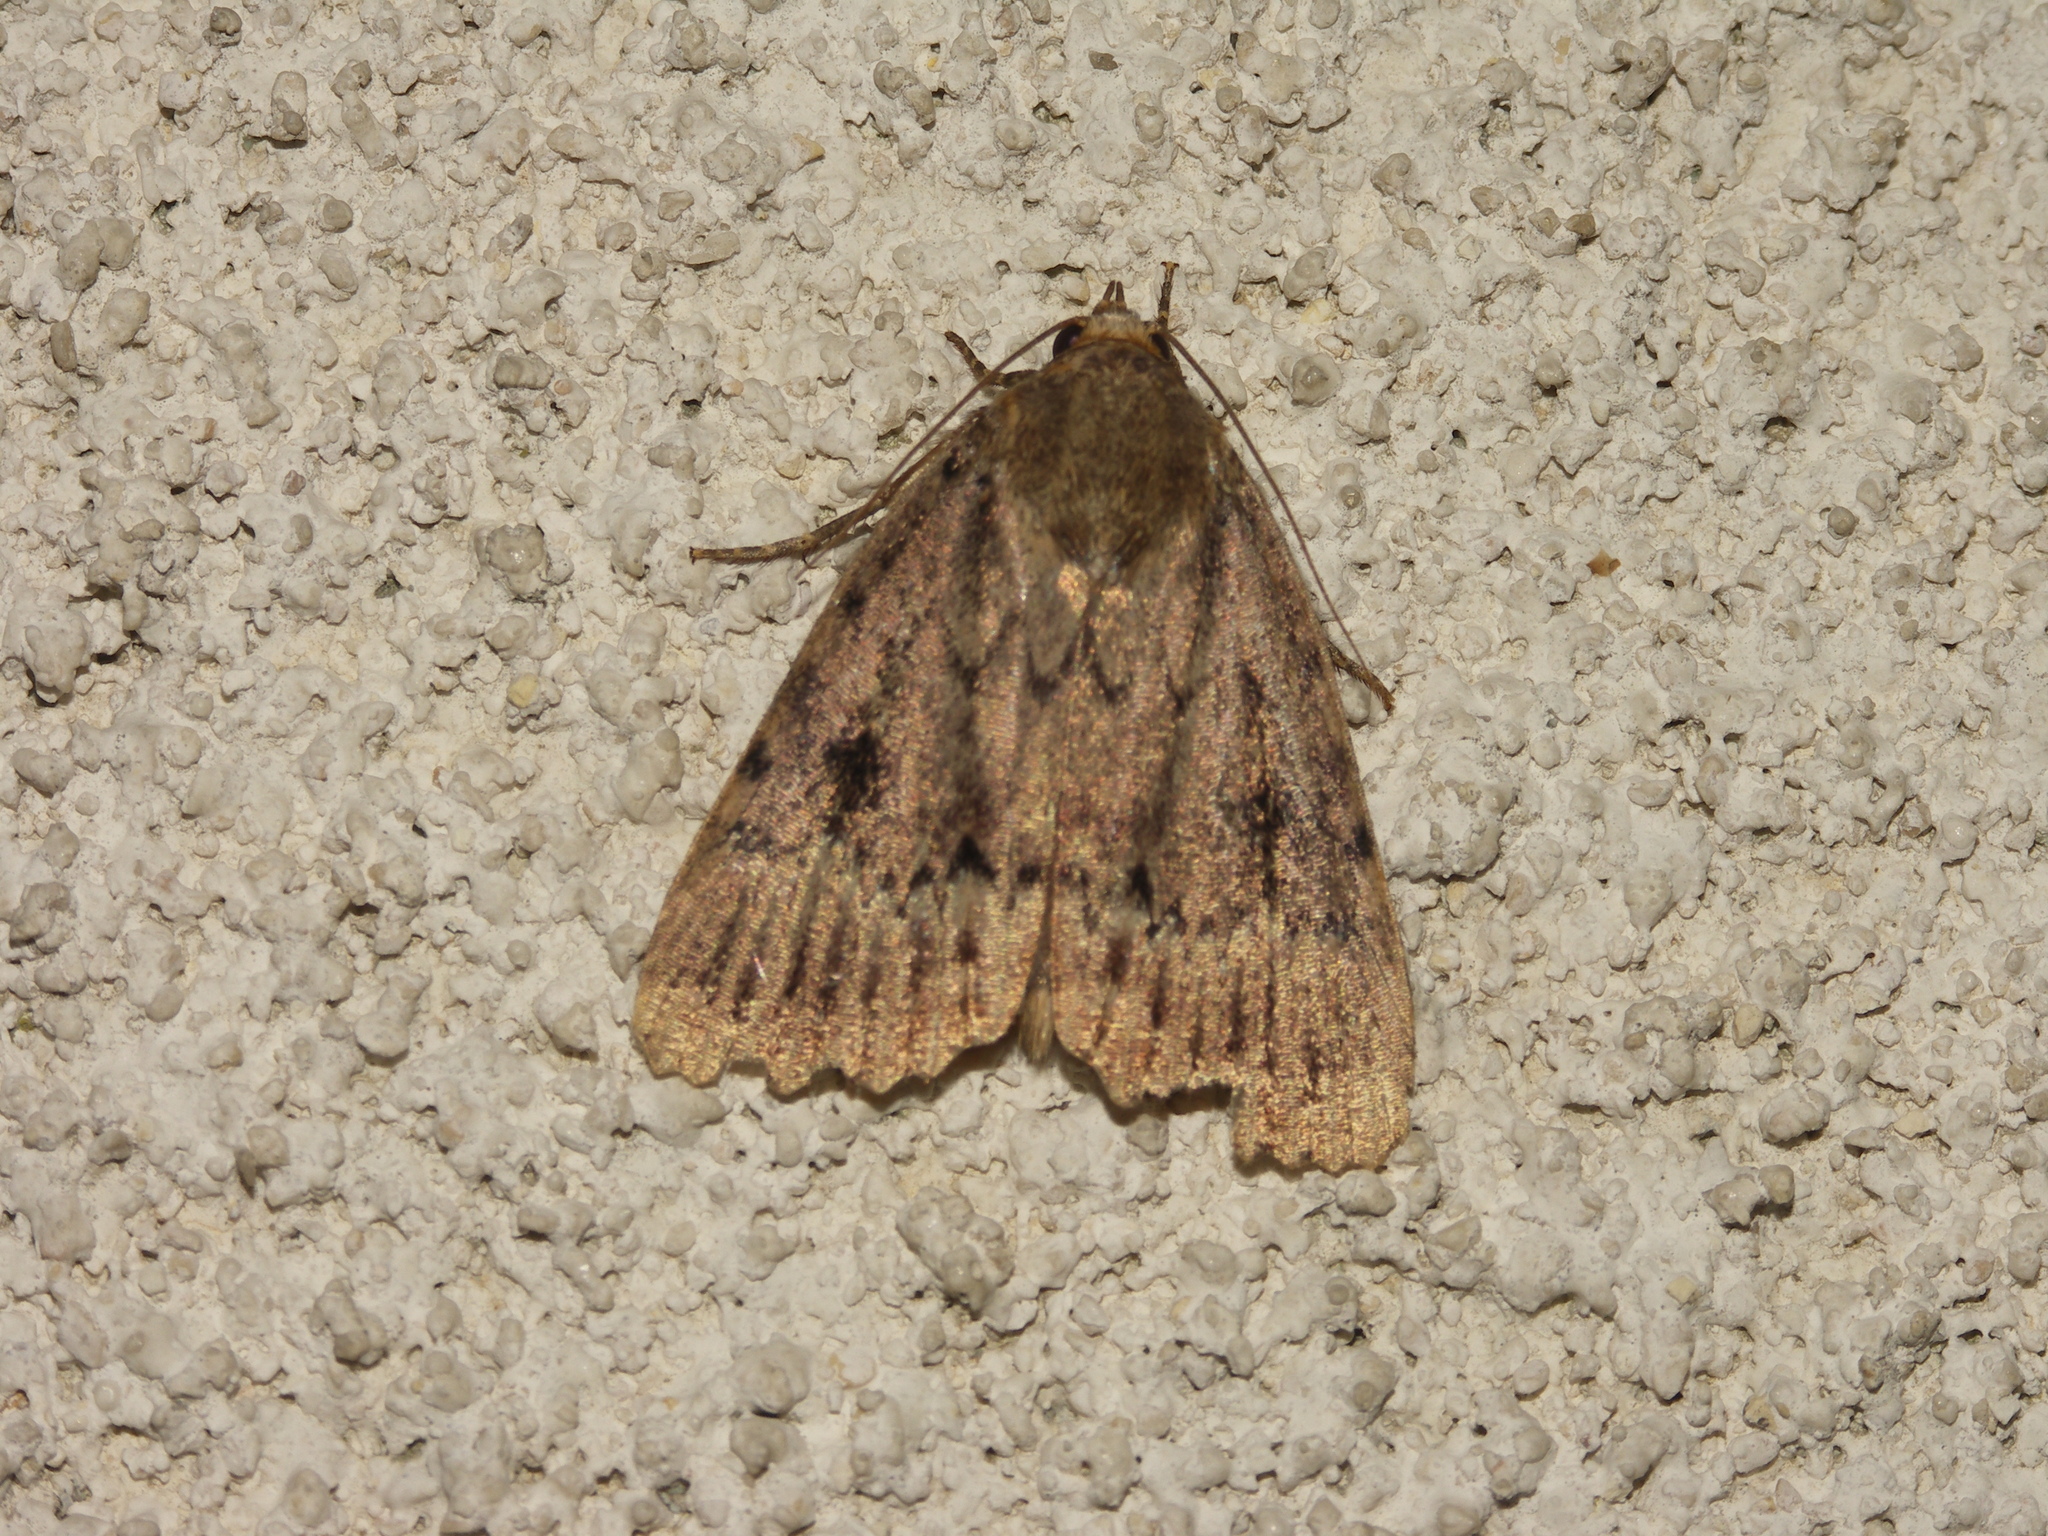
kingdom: Animalia
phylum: Arthropoda
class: Insecta
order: Lepidoptera
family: Noctuidae
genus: Amphipyra
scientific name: Amphipyra pyramidea
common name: Copper underwing
